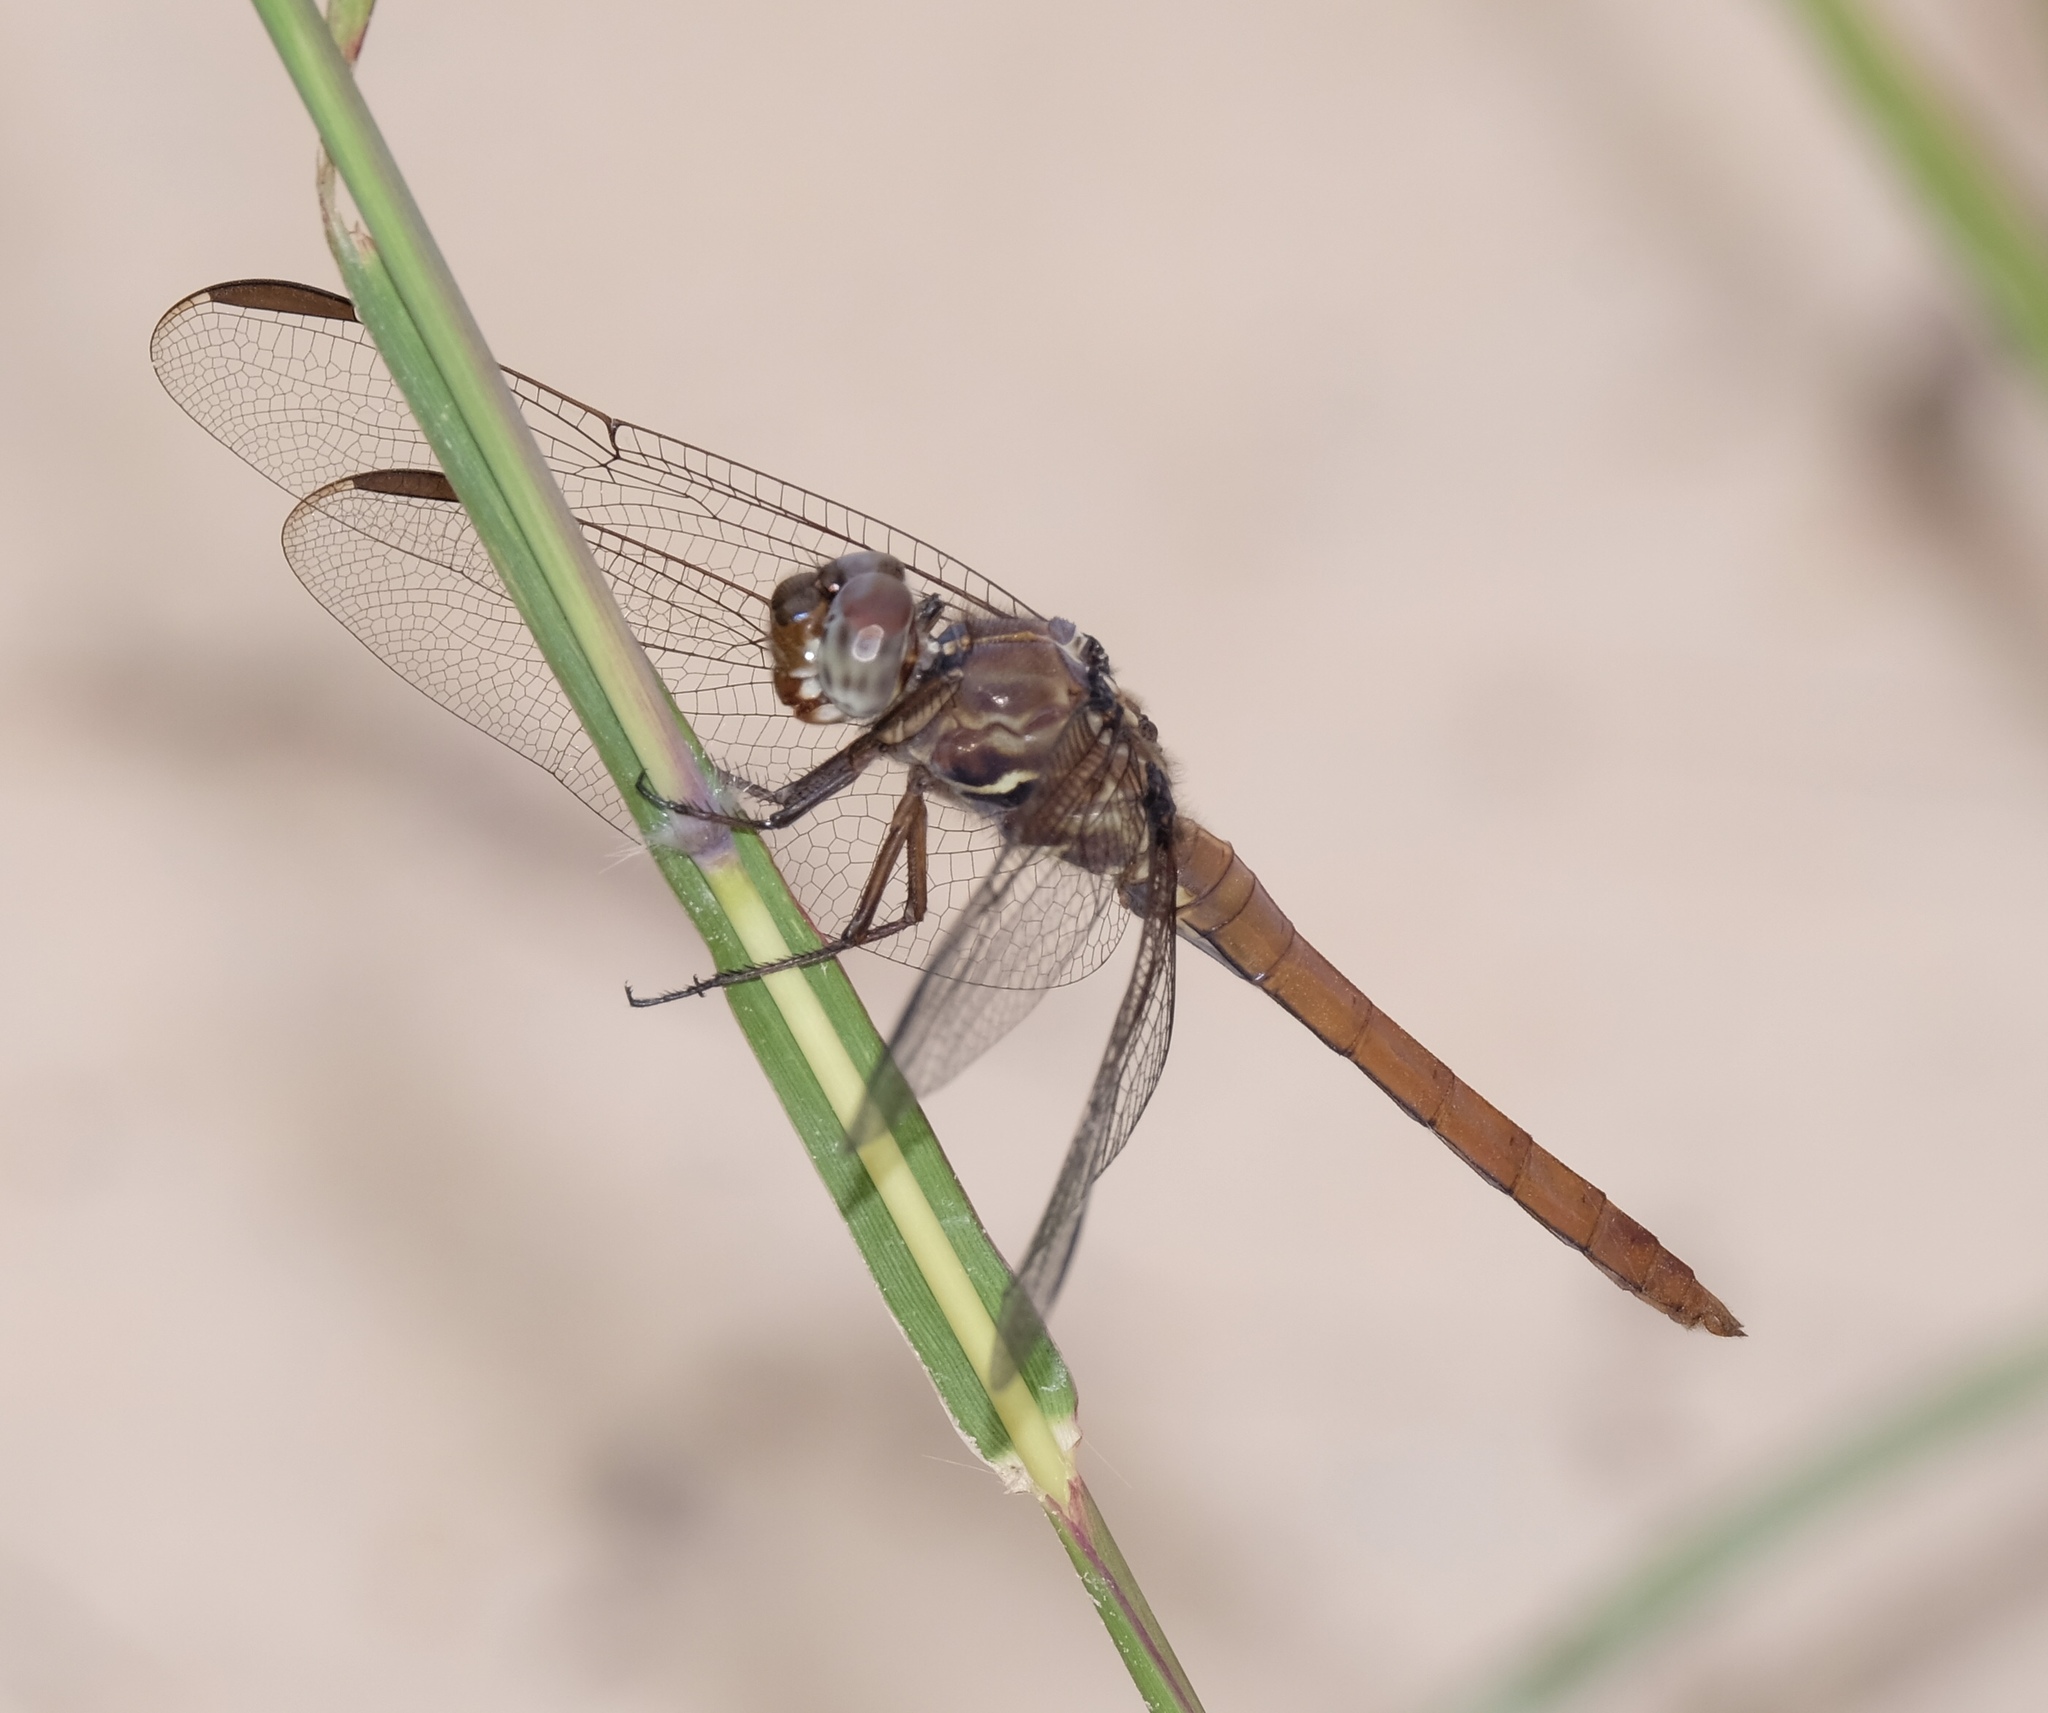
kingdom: Animalia
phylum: Arthropoda
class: Insecta
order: Odonata
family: Libellulidae
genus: Orthemis
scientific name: Orthemis ferruginea
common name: Roseate skimmer
